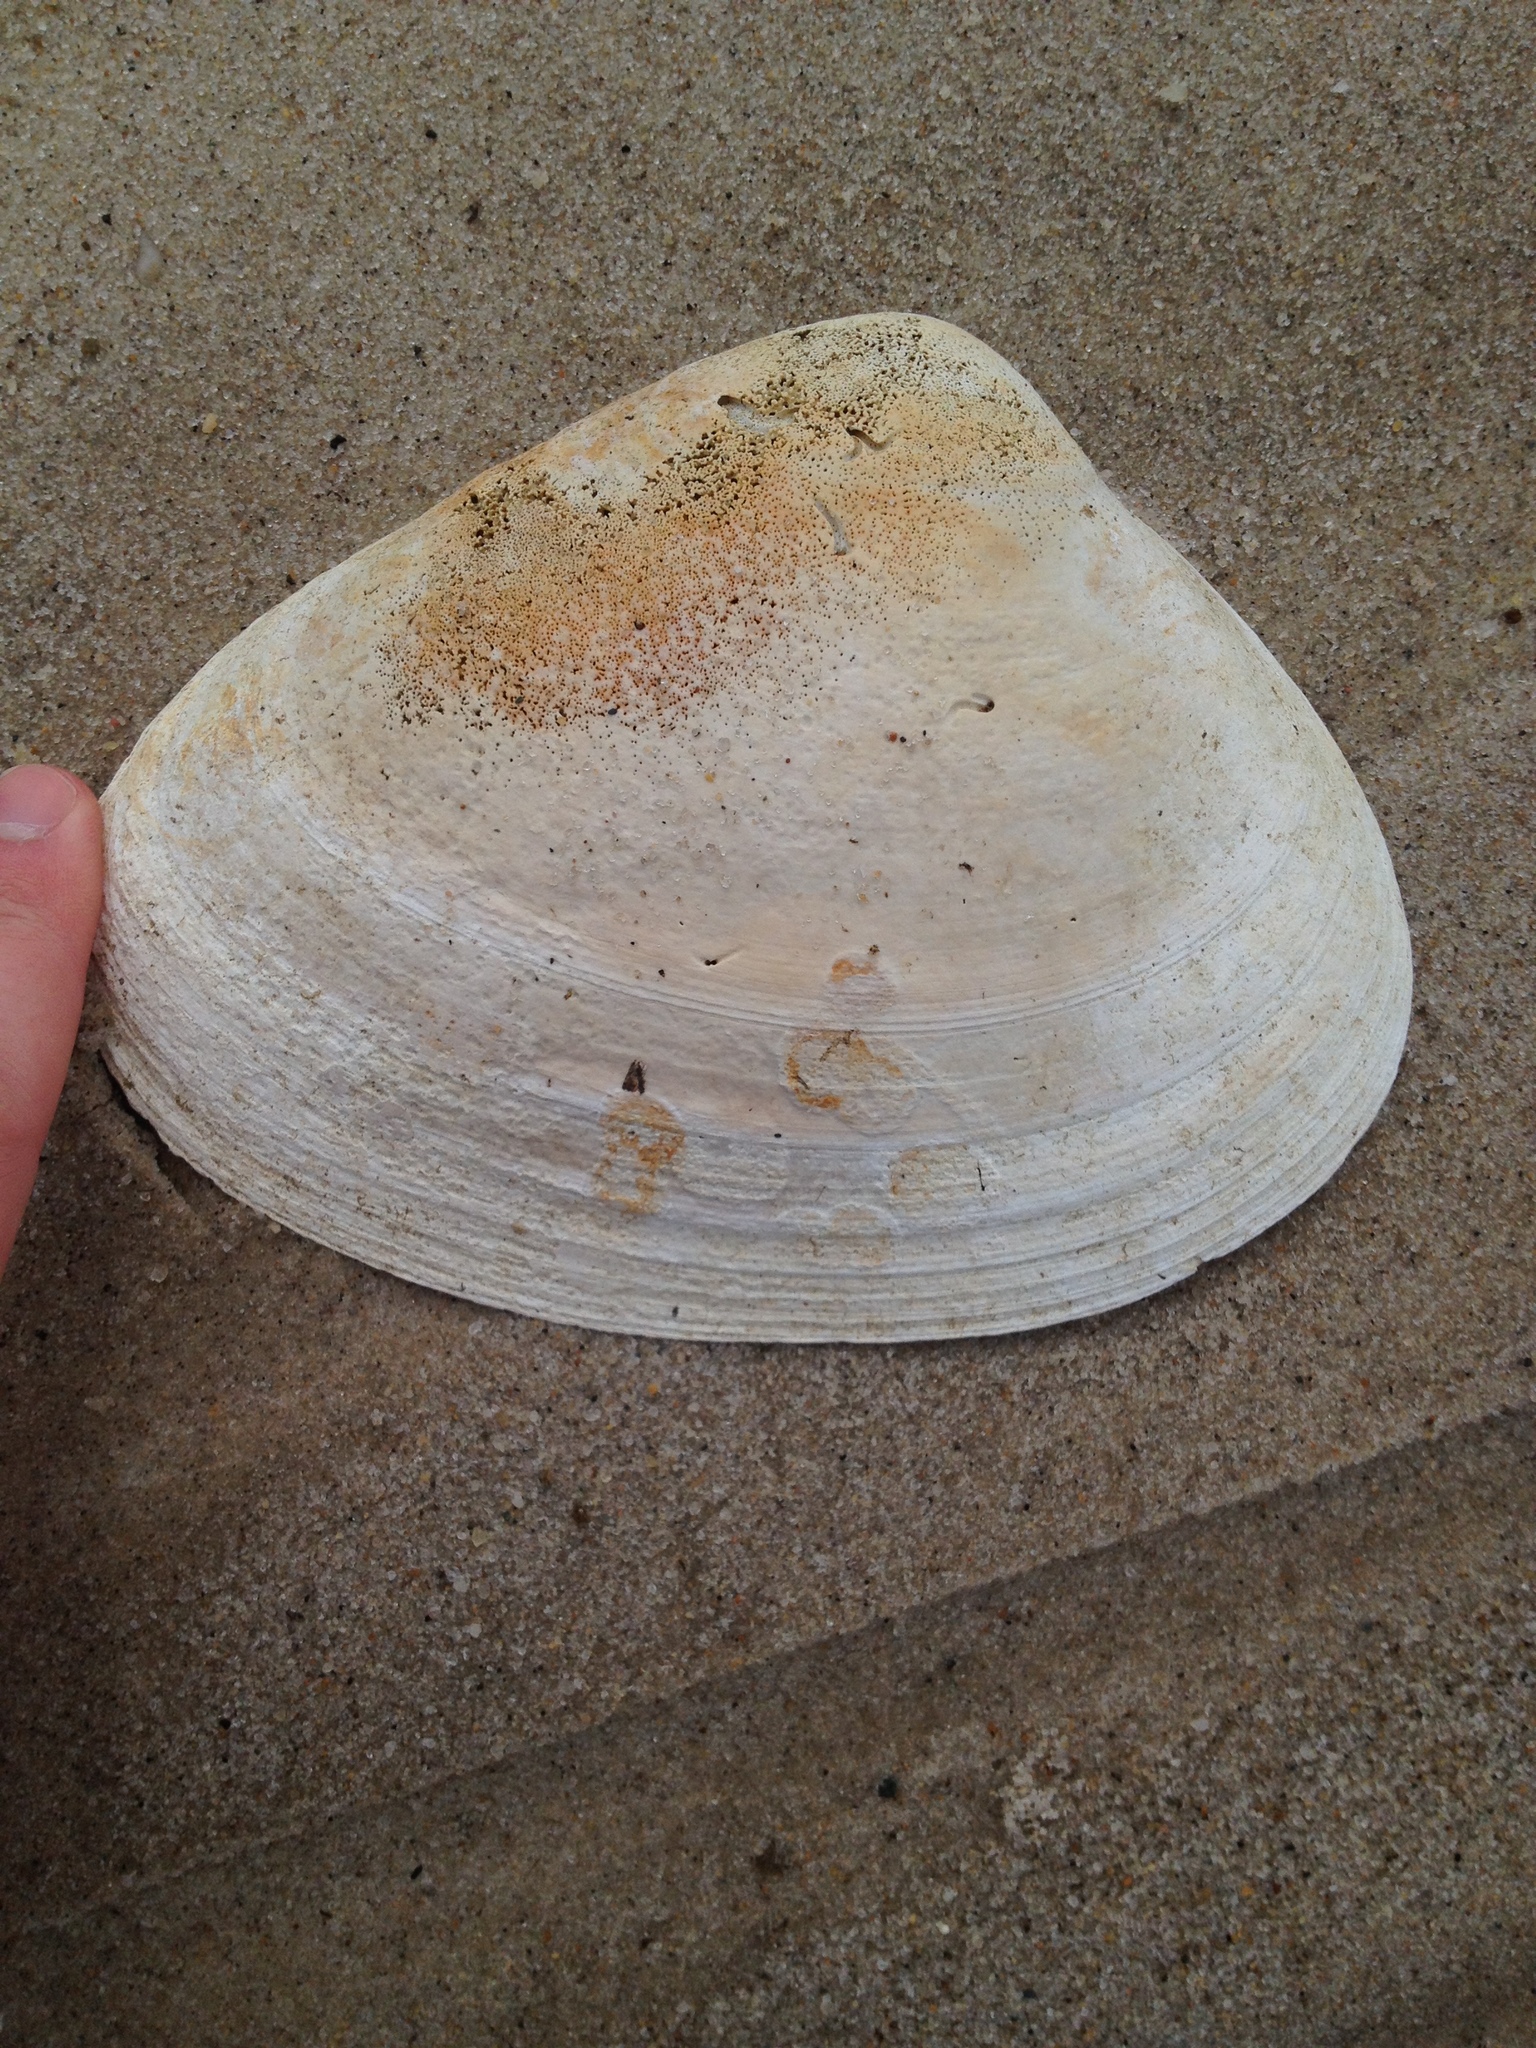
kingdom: Animalia
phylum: Mollusca
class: Bivalvia
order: Venerida
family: Mactridae
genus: Spisula
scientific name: Spisula solidissima
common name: Atlantic surf clam
